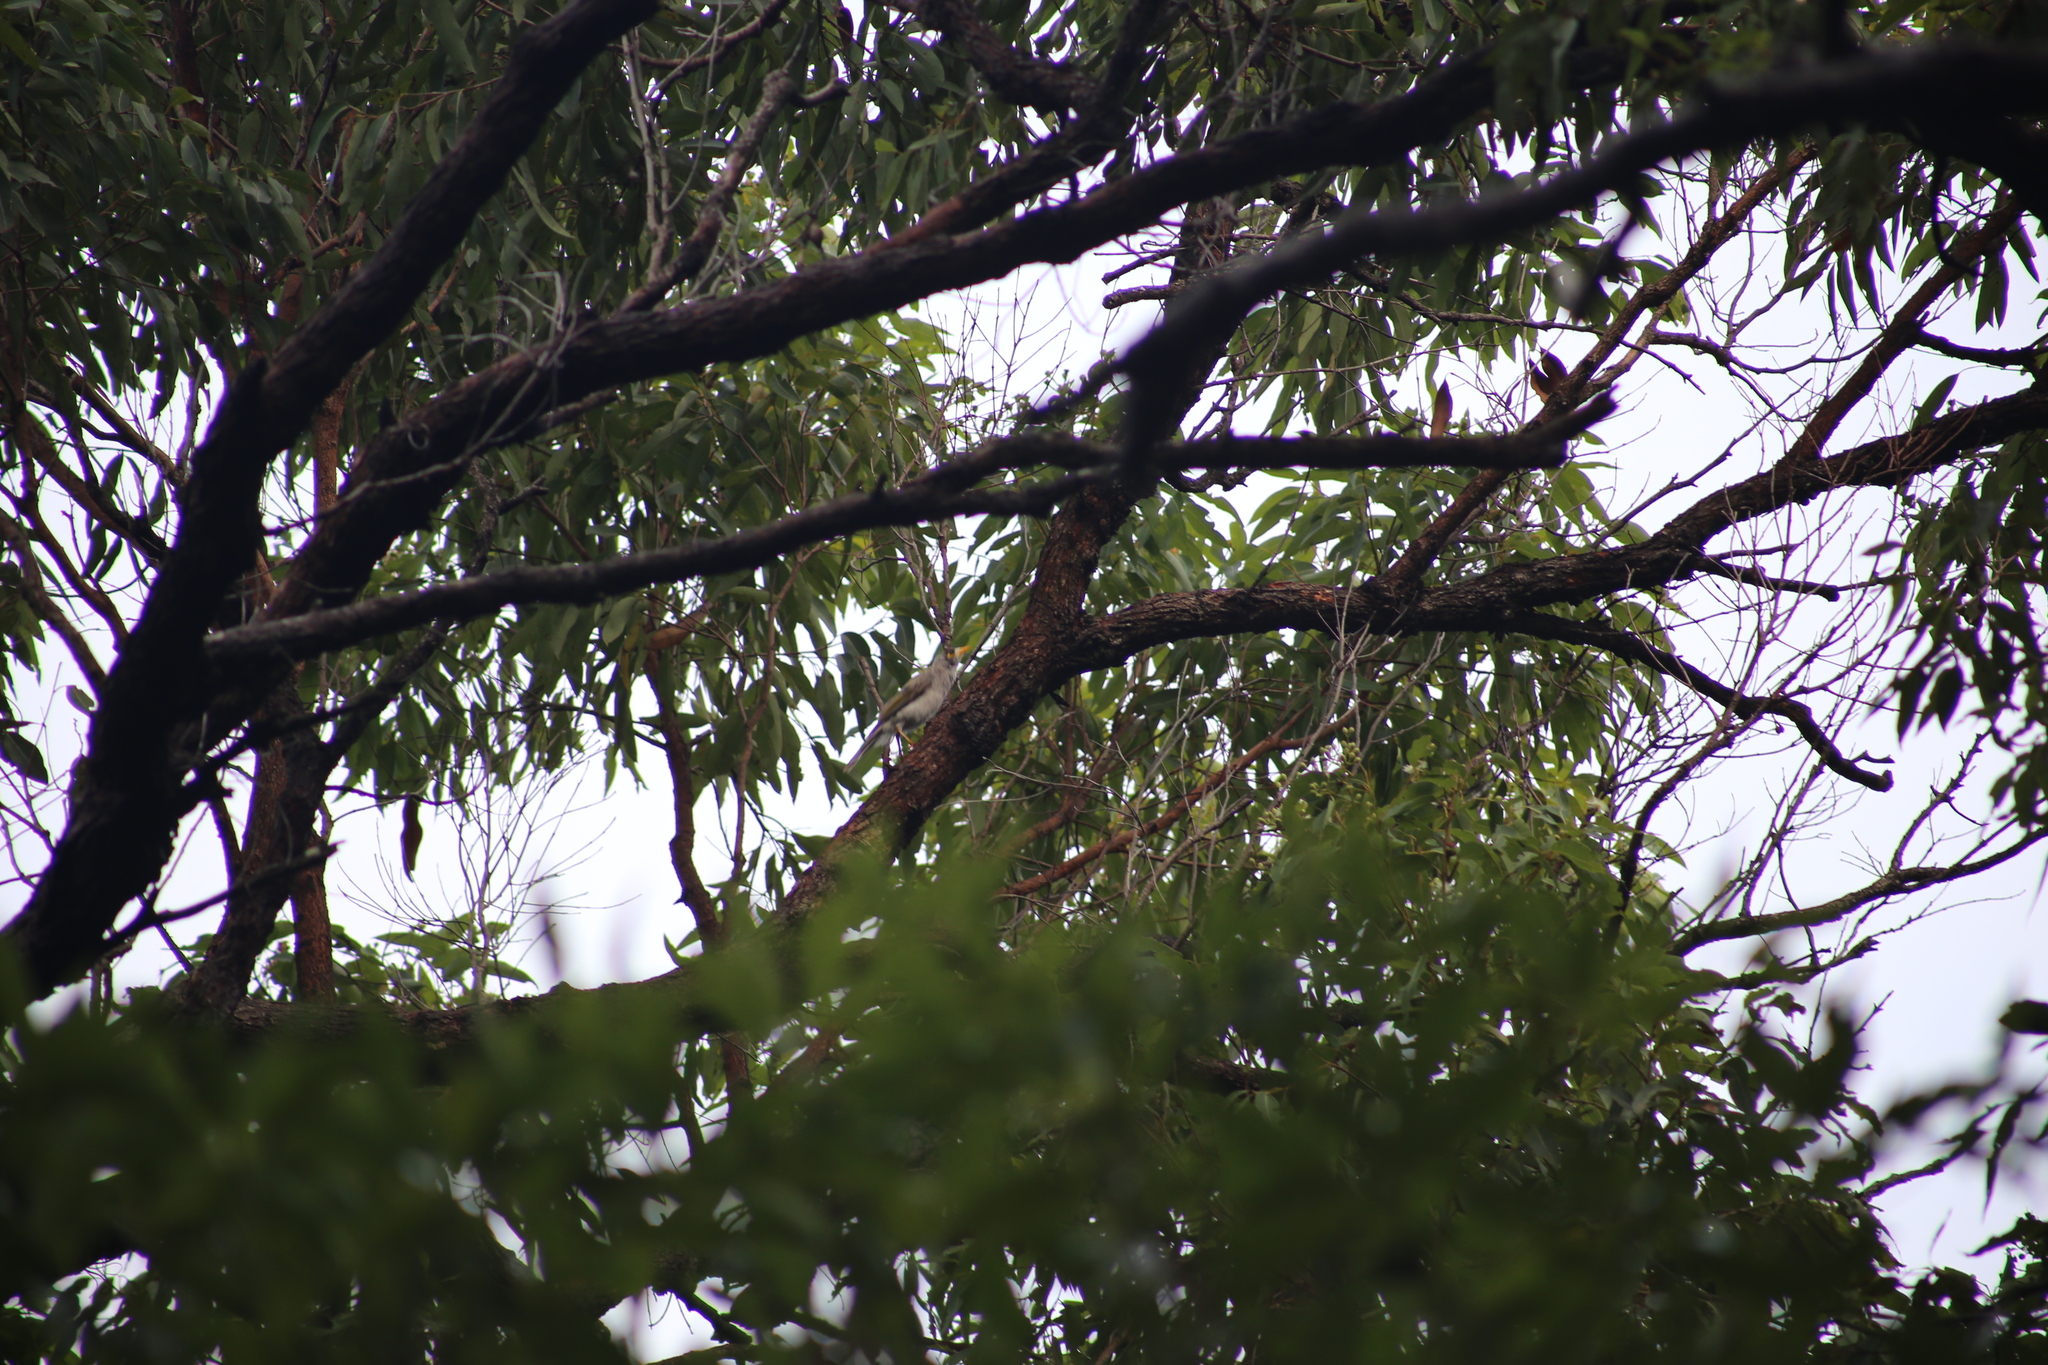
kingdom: Animalia
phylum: Chordata
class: Aves
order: Passeriformes
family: Meliphagidae
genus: Manorina
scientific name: Manorina melanocephala
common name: Noisy miner
